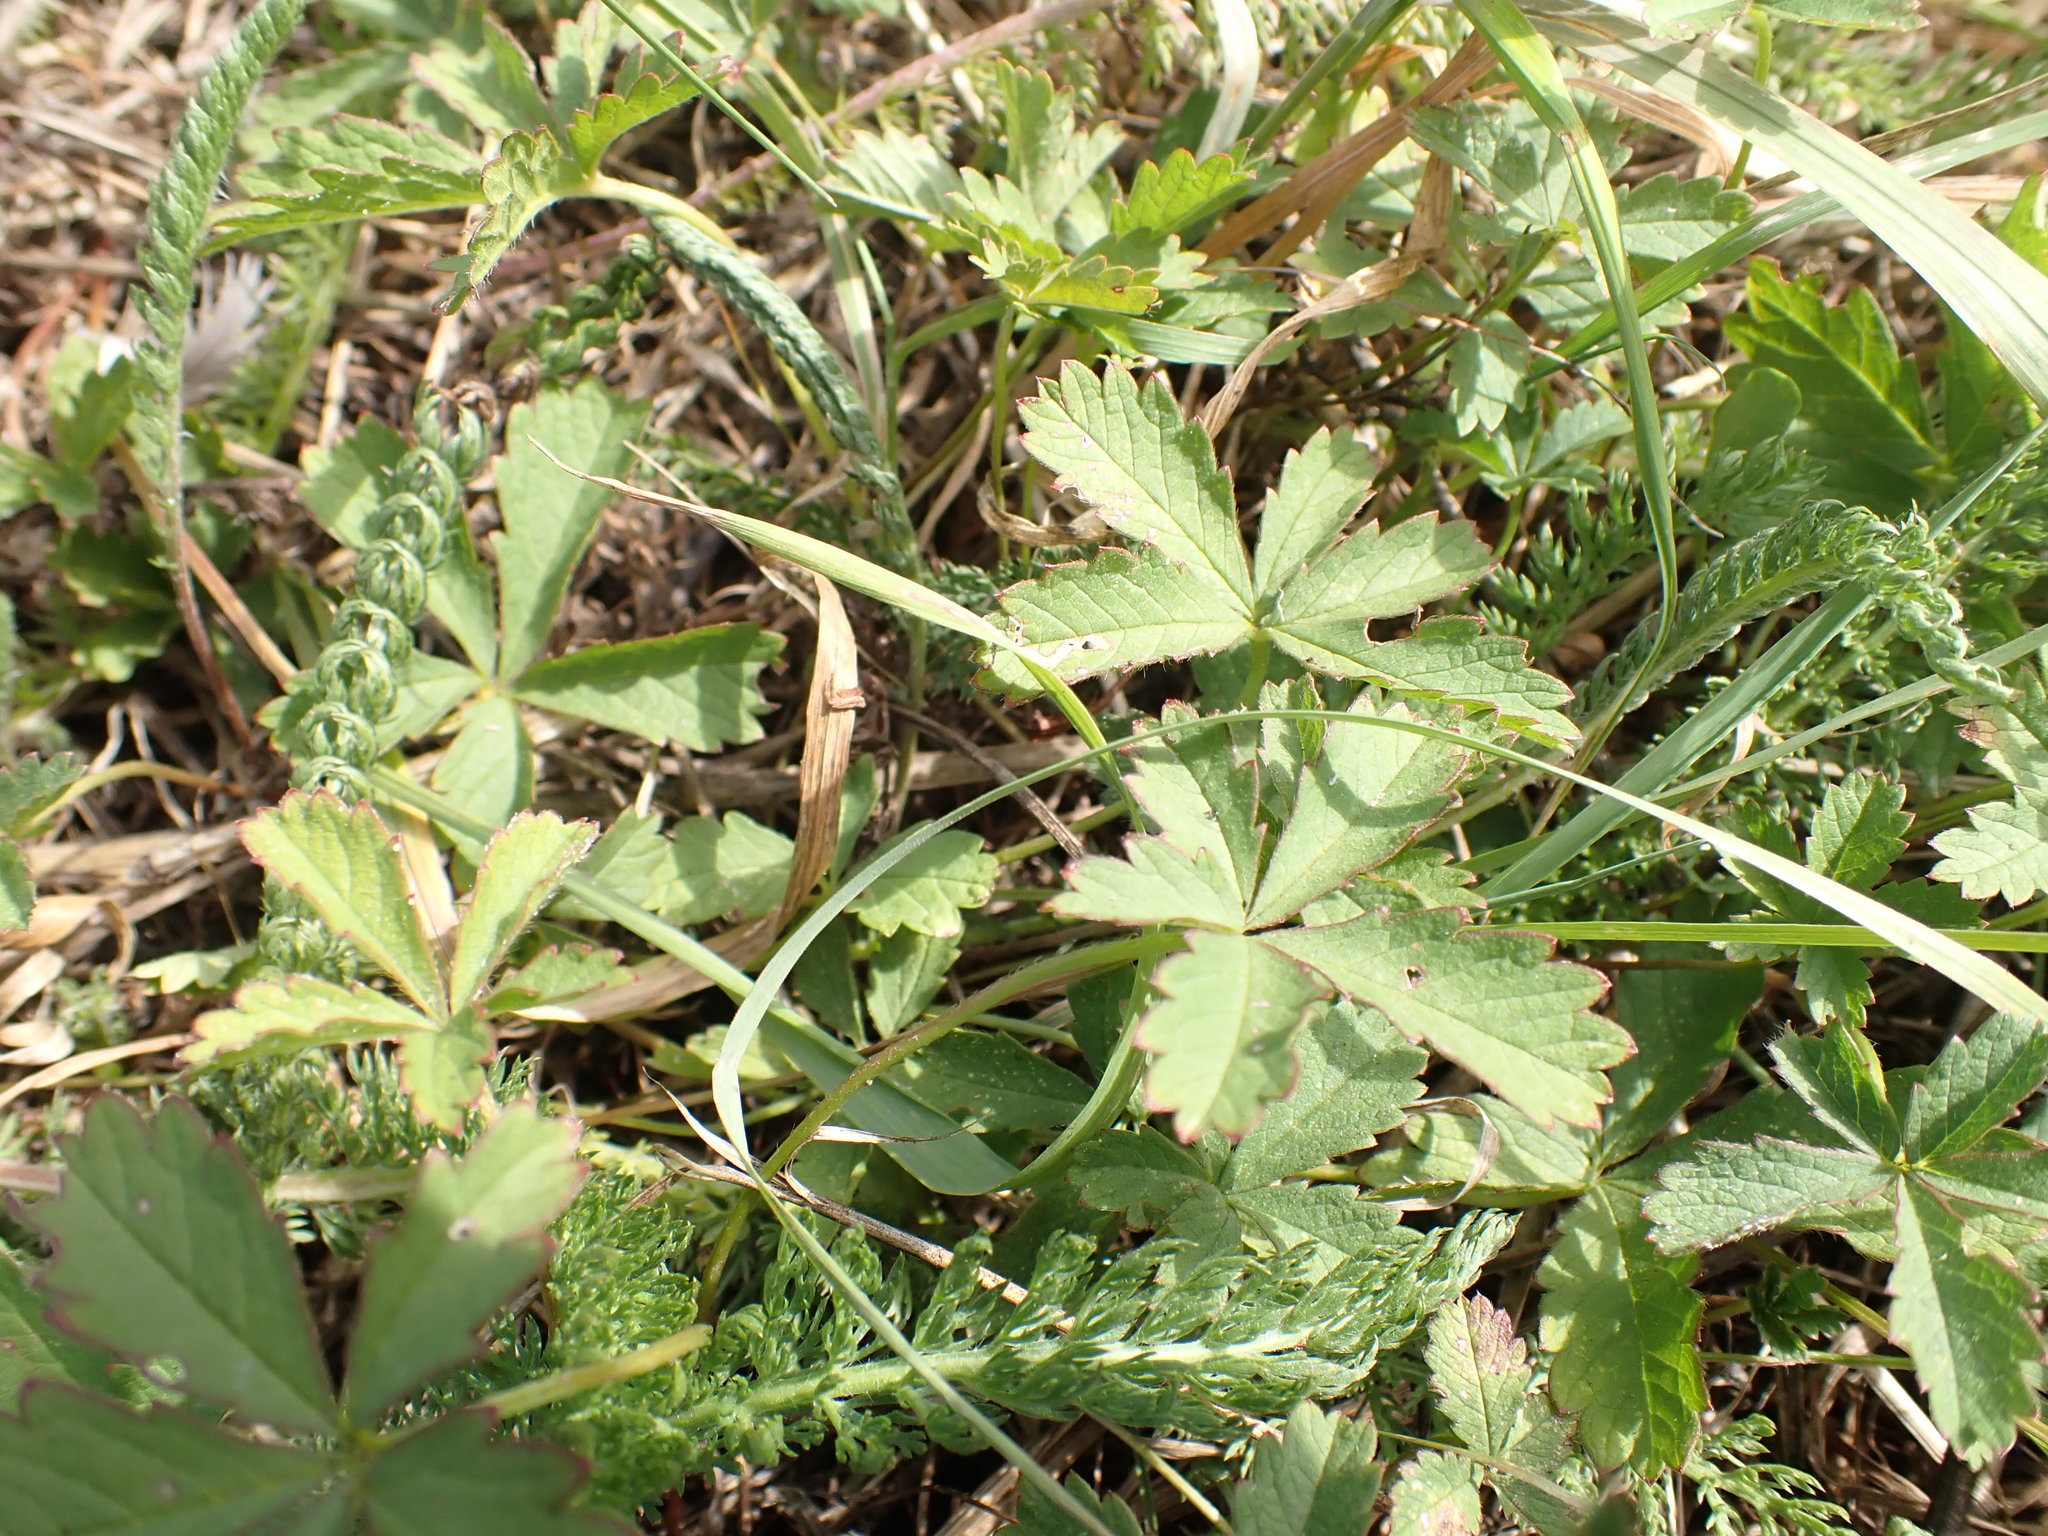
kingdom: Plantae
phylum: Tracheophyta
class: Magnoliopsida
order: Rosales
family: Rosaceae
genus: Potentilla
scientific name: Potentilla reptans
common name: Creeping cinquefoil
